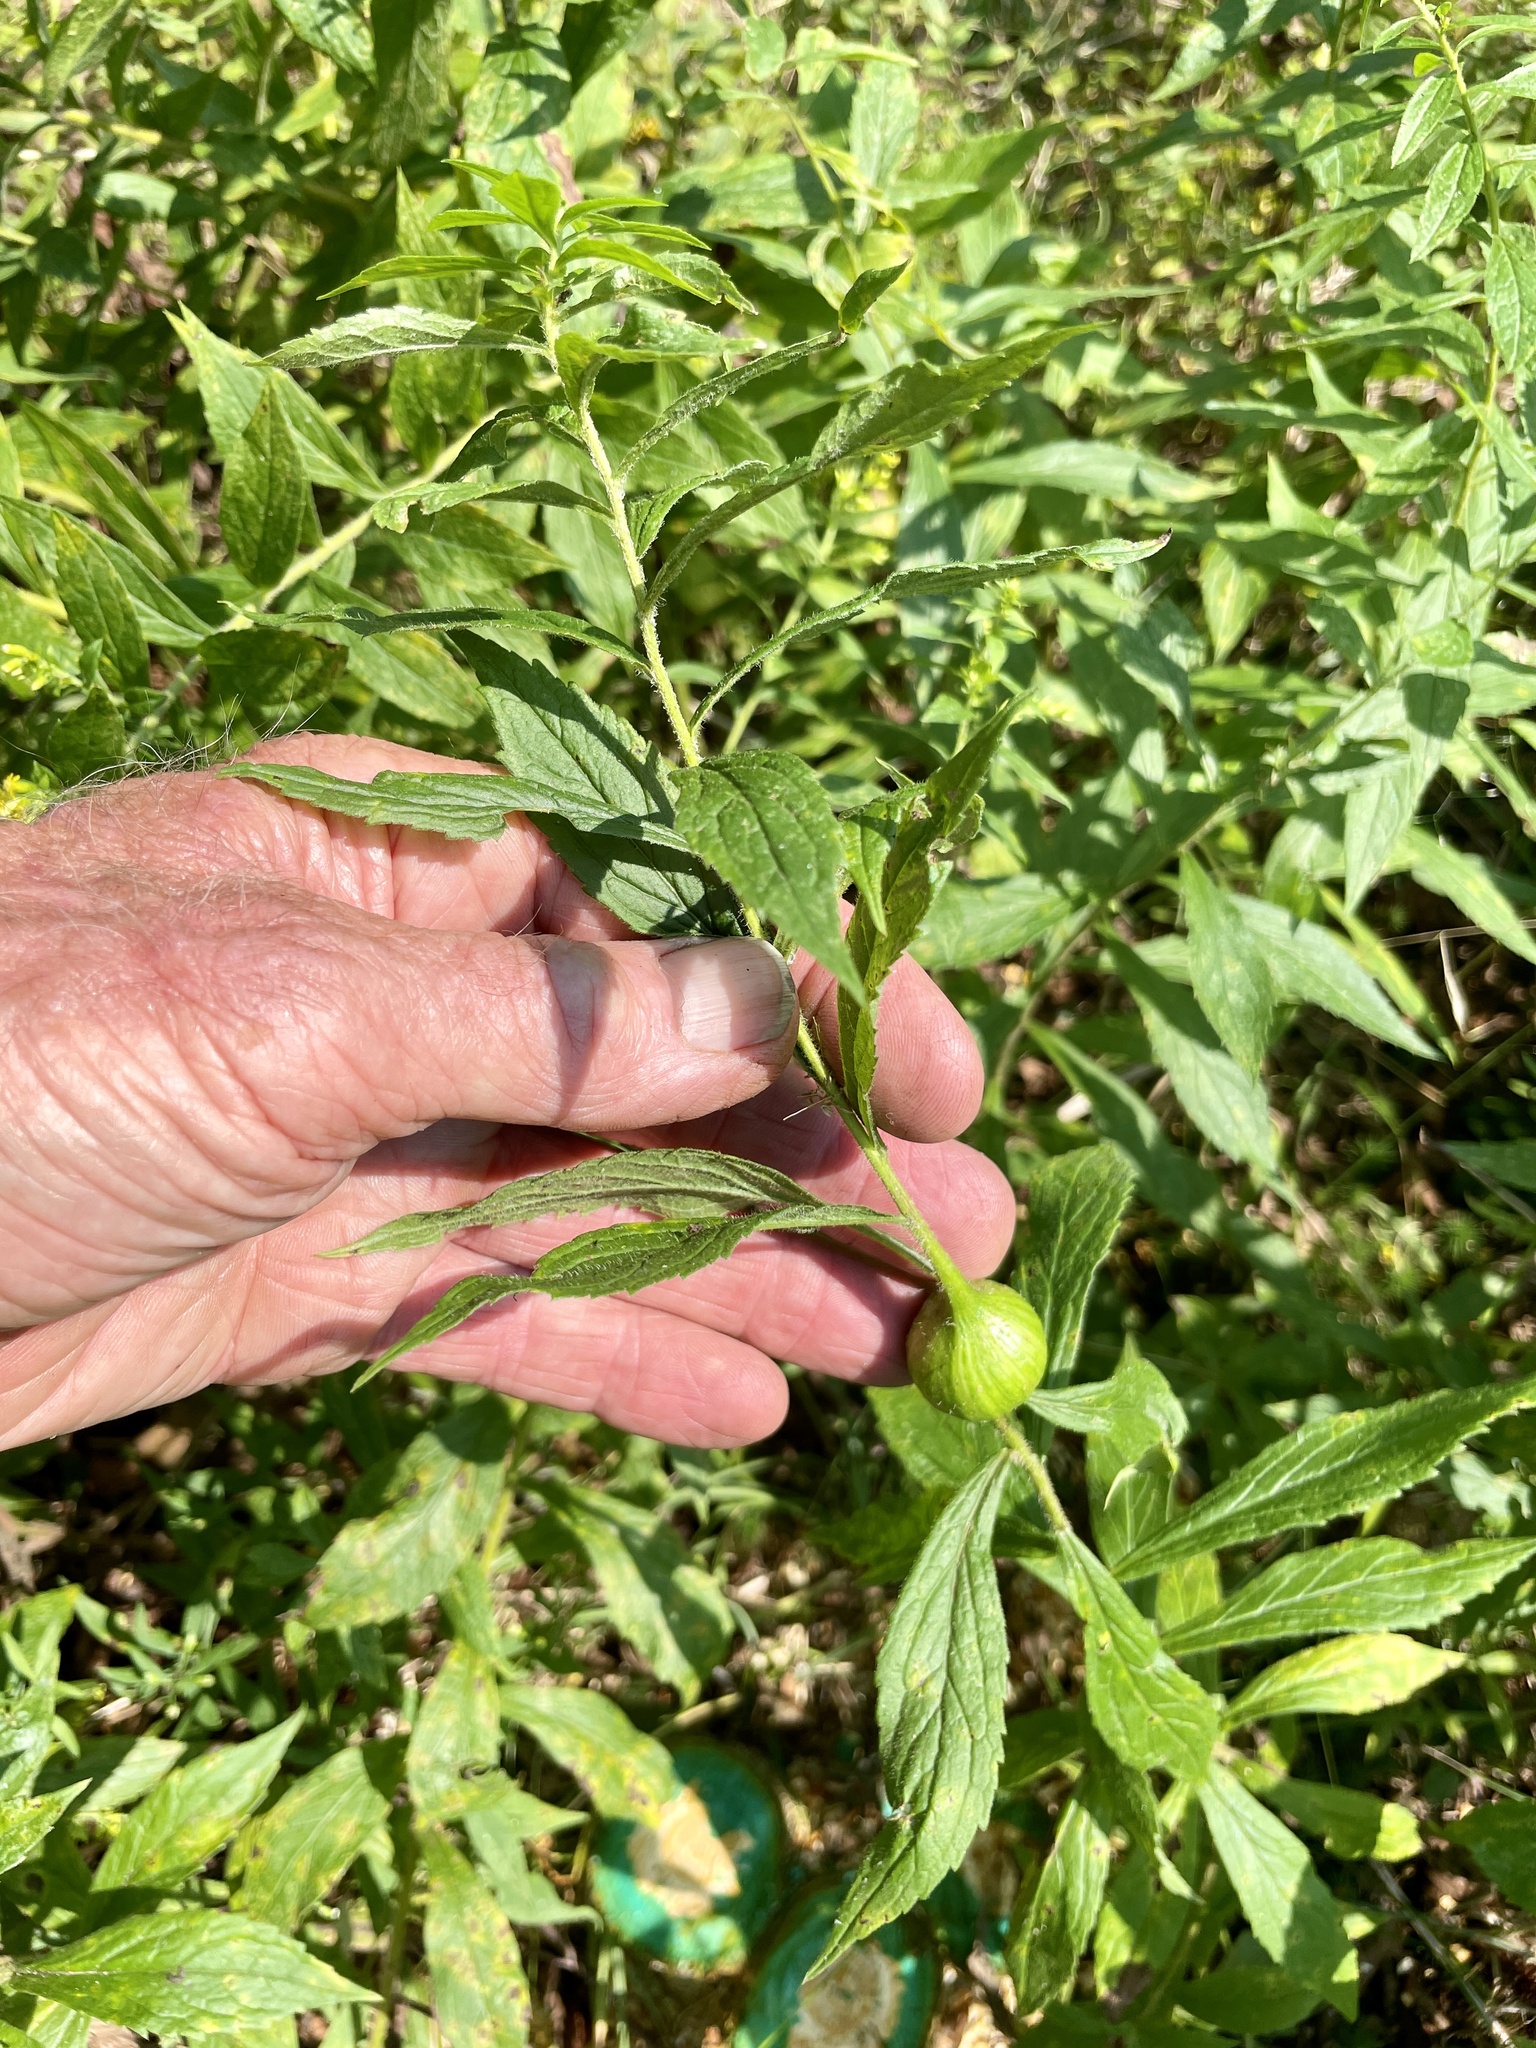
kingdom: Animalia
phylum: Arthropoda
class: Insecta
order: Diptera
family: Tephritidae
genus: Eurosta
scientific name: Eurosta solidaginis
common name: Goldenrod gall fly
